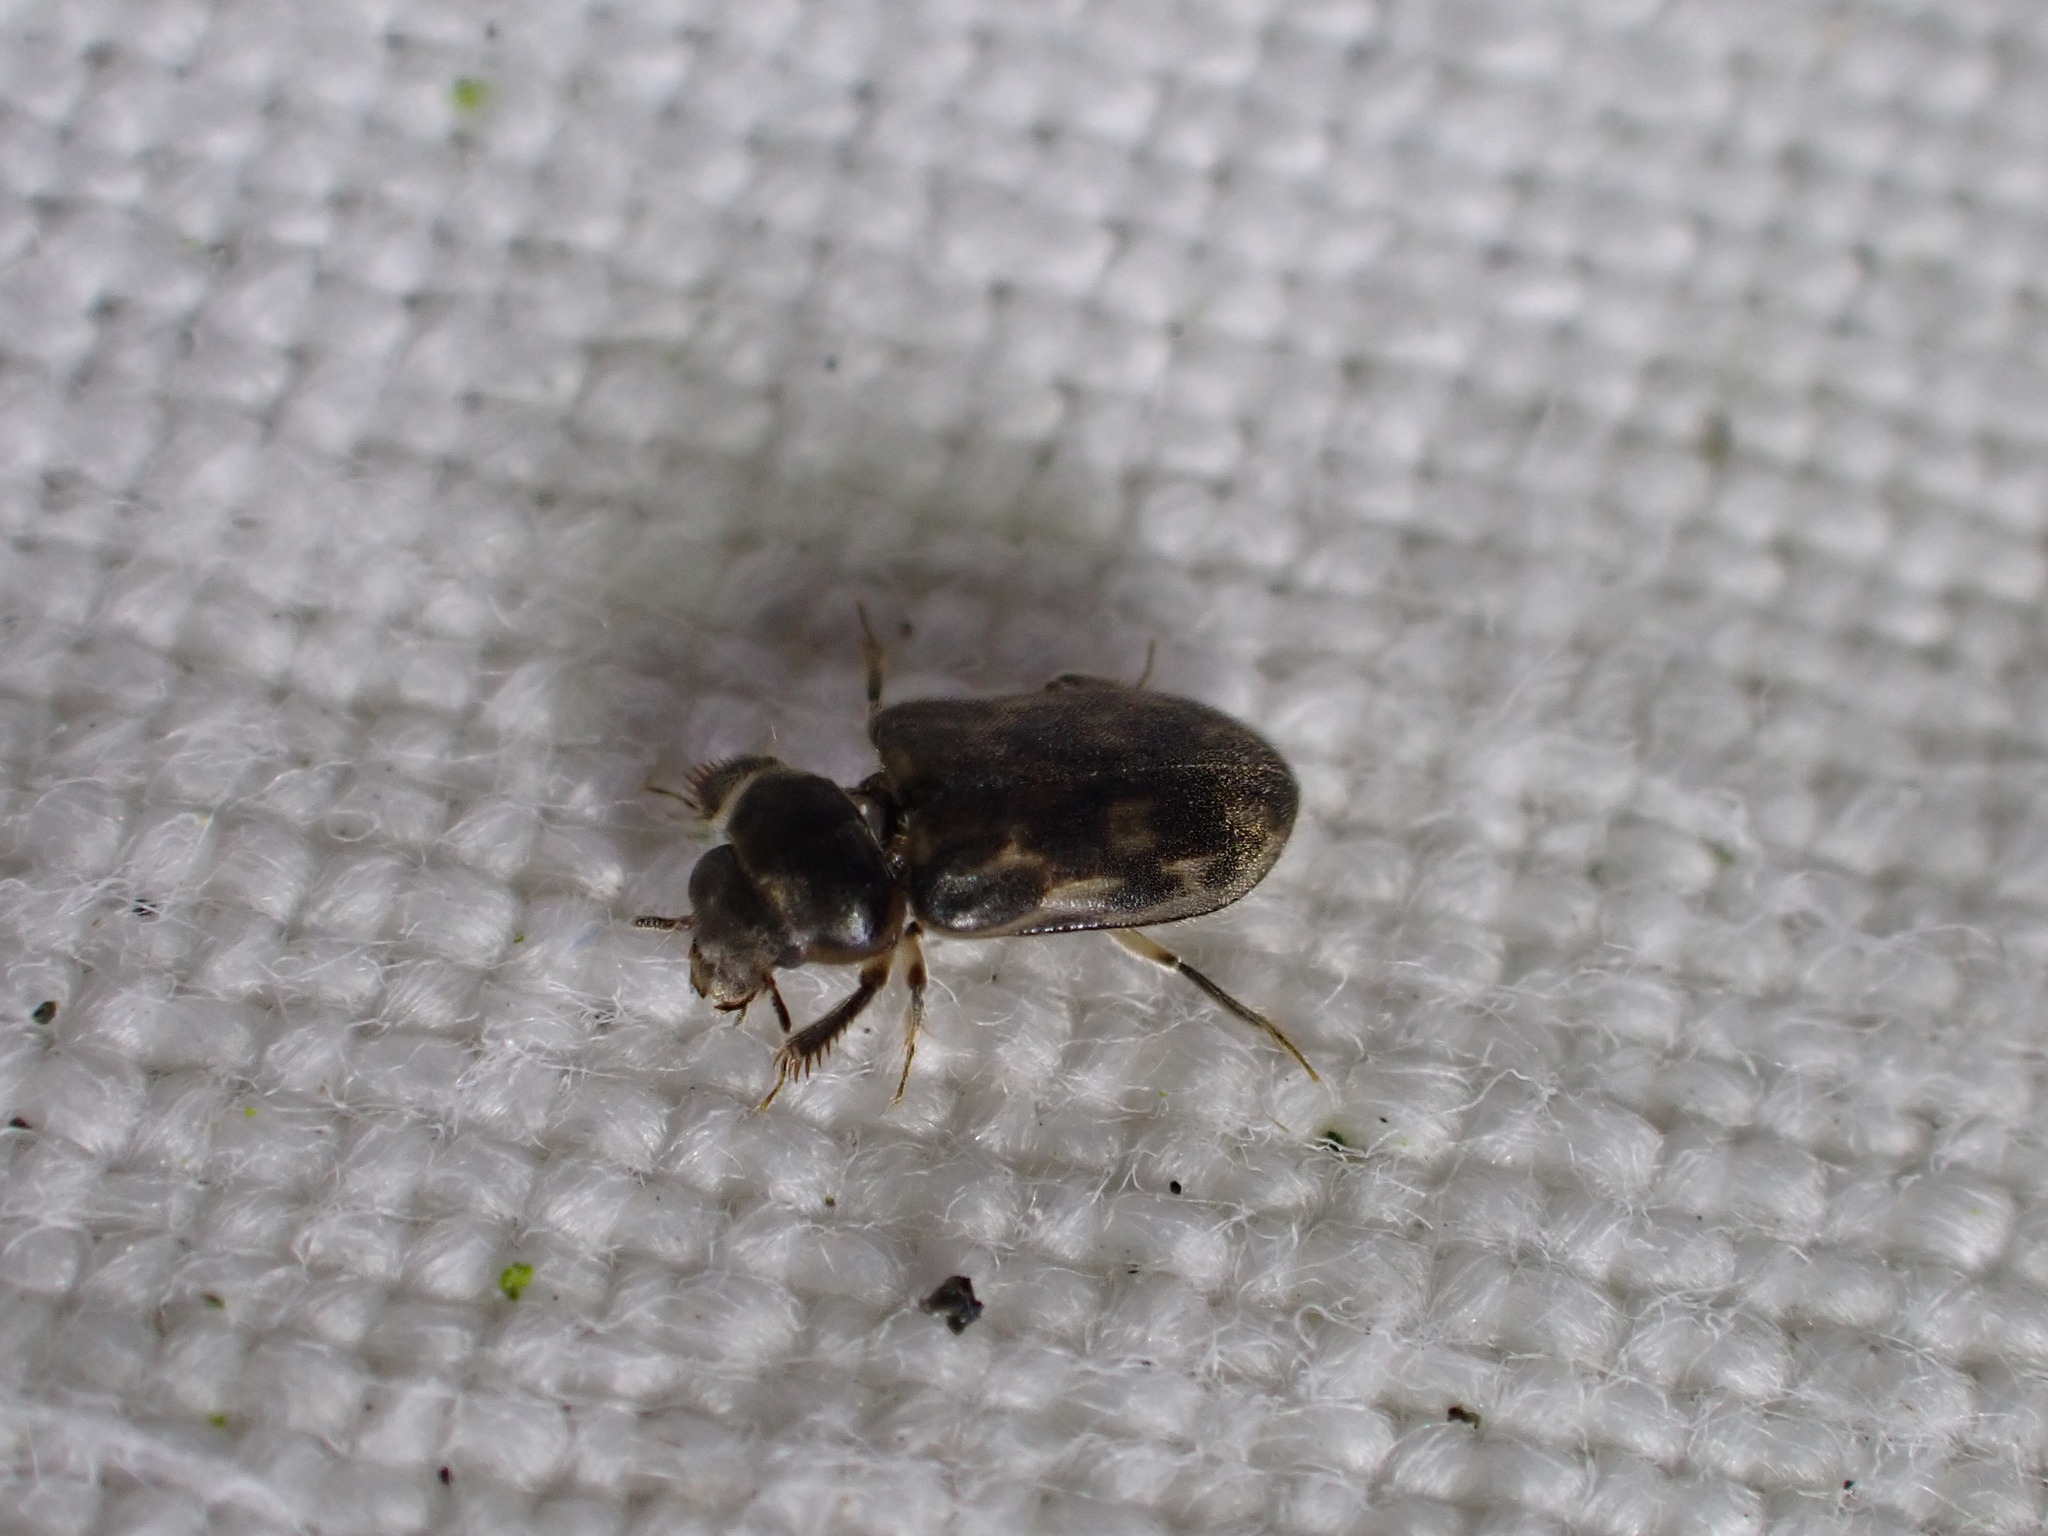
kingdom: Animalia
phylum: Arthropoda
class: Insecta
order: Coleoptera
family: Heteroceridae
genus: Heterocerus
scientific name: Heterocerus fenestratus
